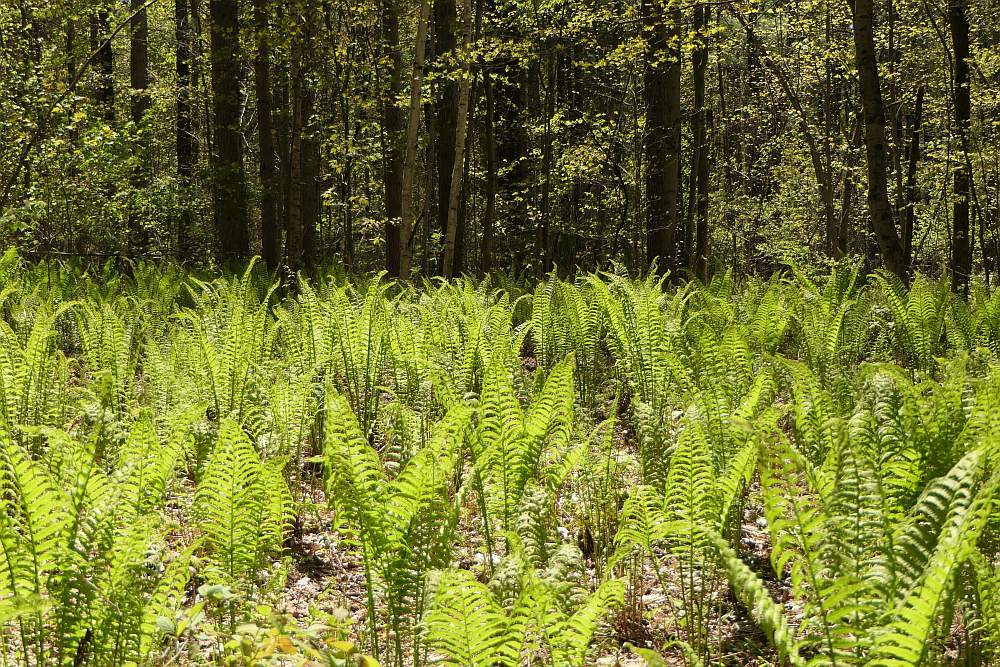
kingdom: Plantae
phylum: Tracheophyta
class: Polypodiopsida
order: Polypodiales
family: Onocleaceae
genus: Matteuccia
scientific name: Matteuccia struthiopteris
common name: Ostrich fern
